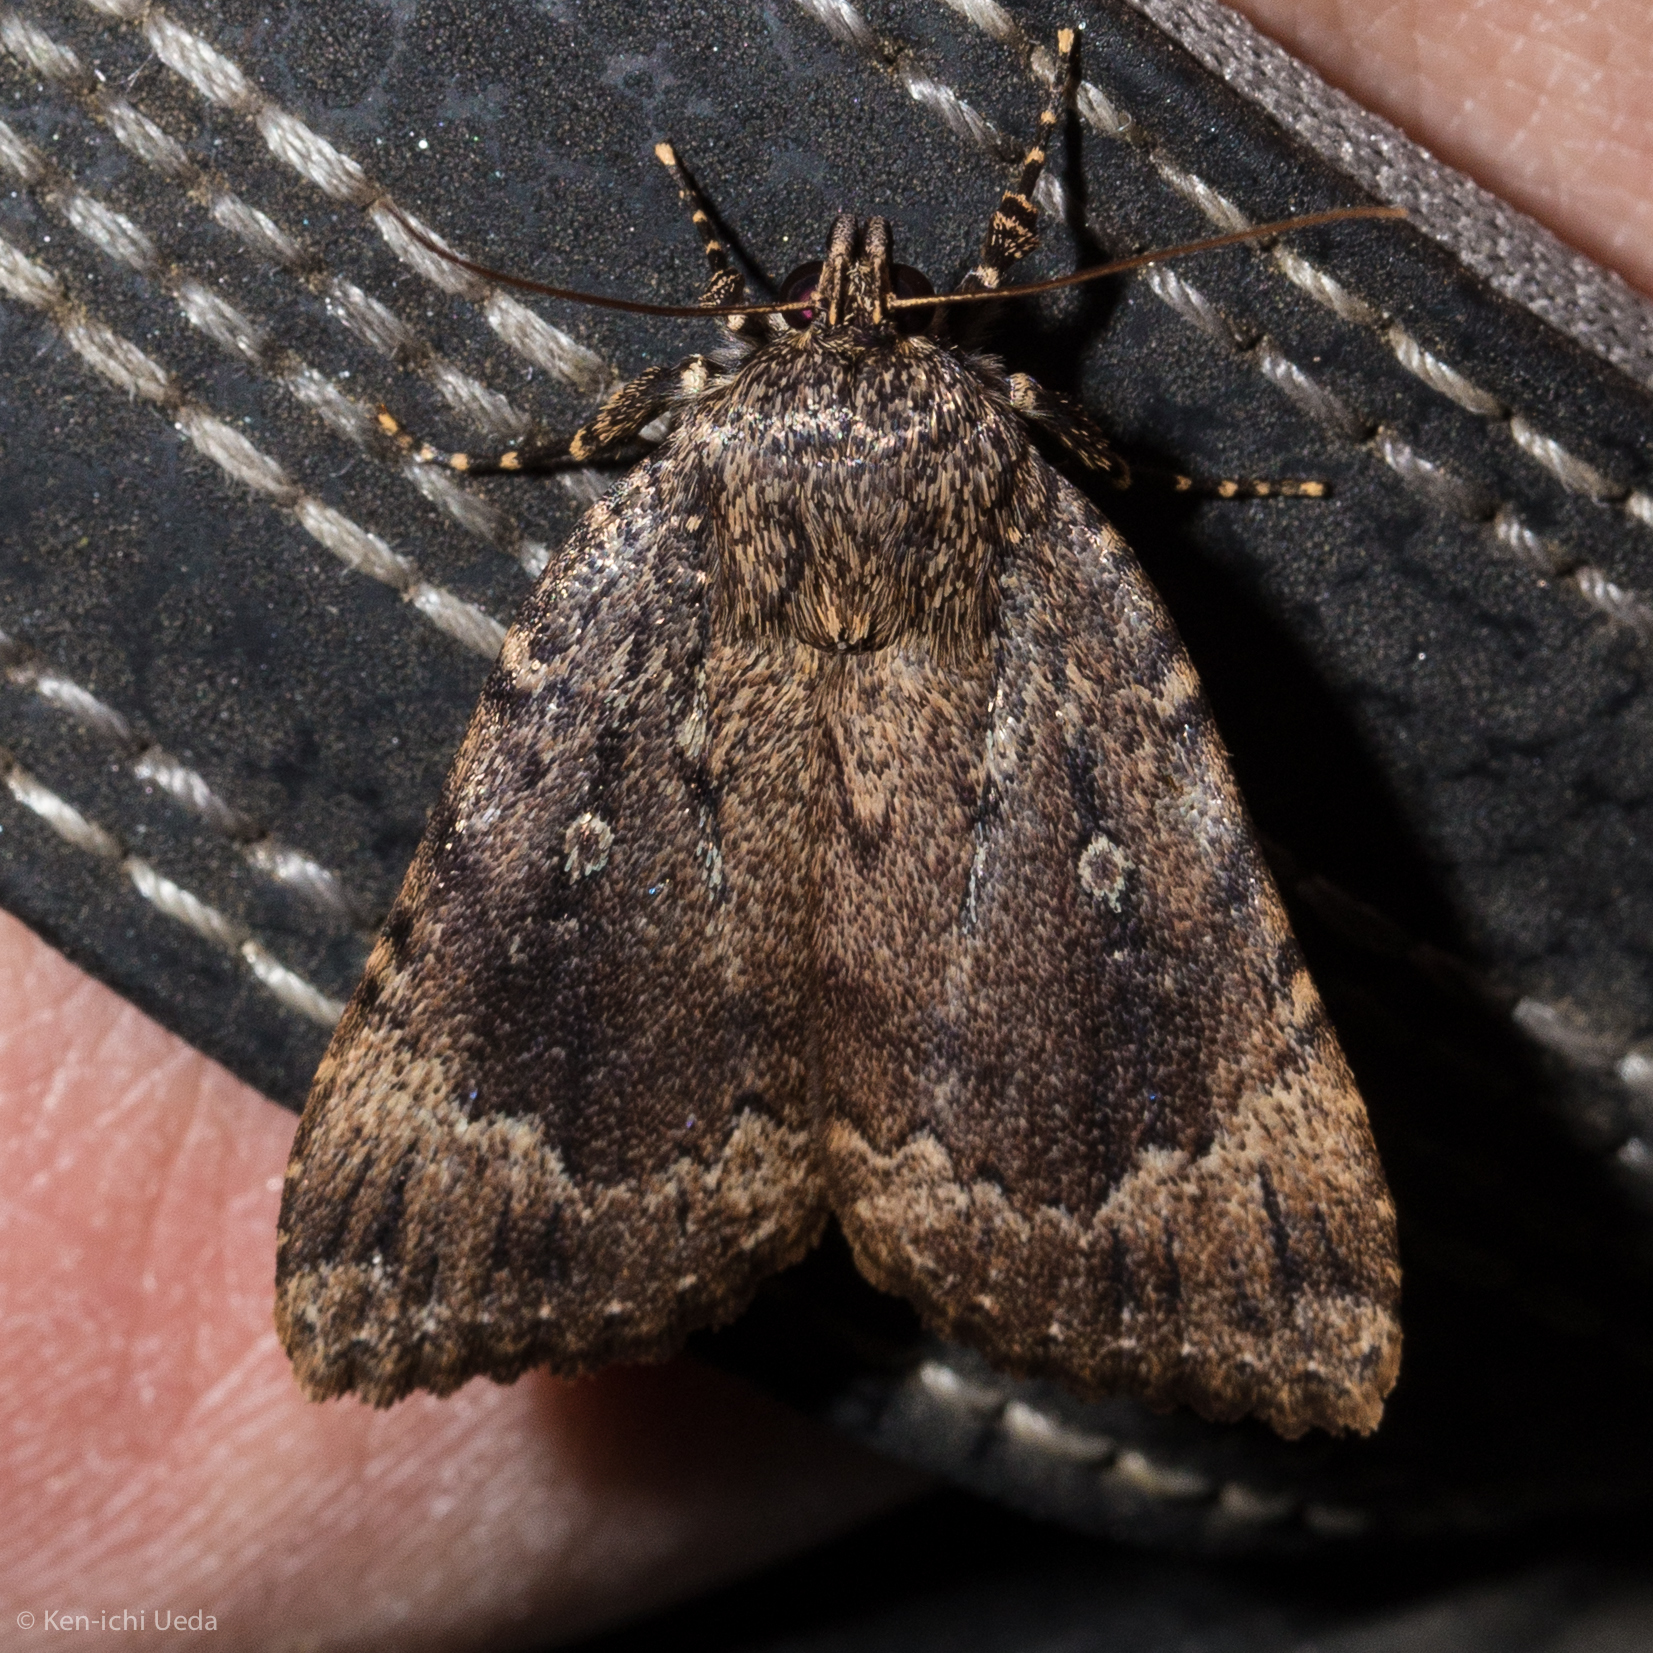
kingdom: Animalia
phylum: Arthropoda
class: Insecta
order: Lepidoptera
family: Noctuidae
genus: Amphipyra
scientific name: Amphipyra pyramidoides
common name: American copper underwing
